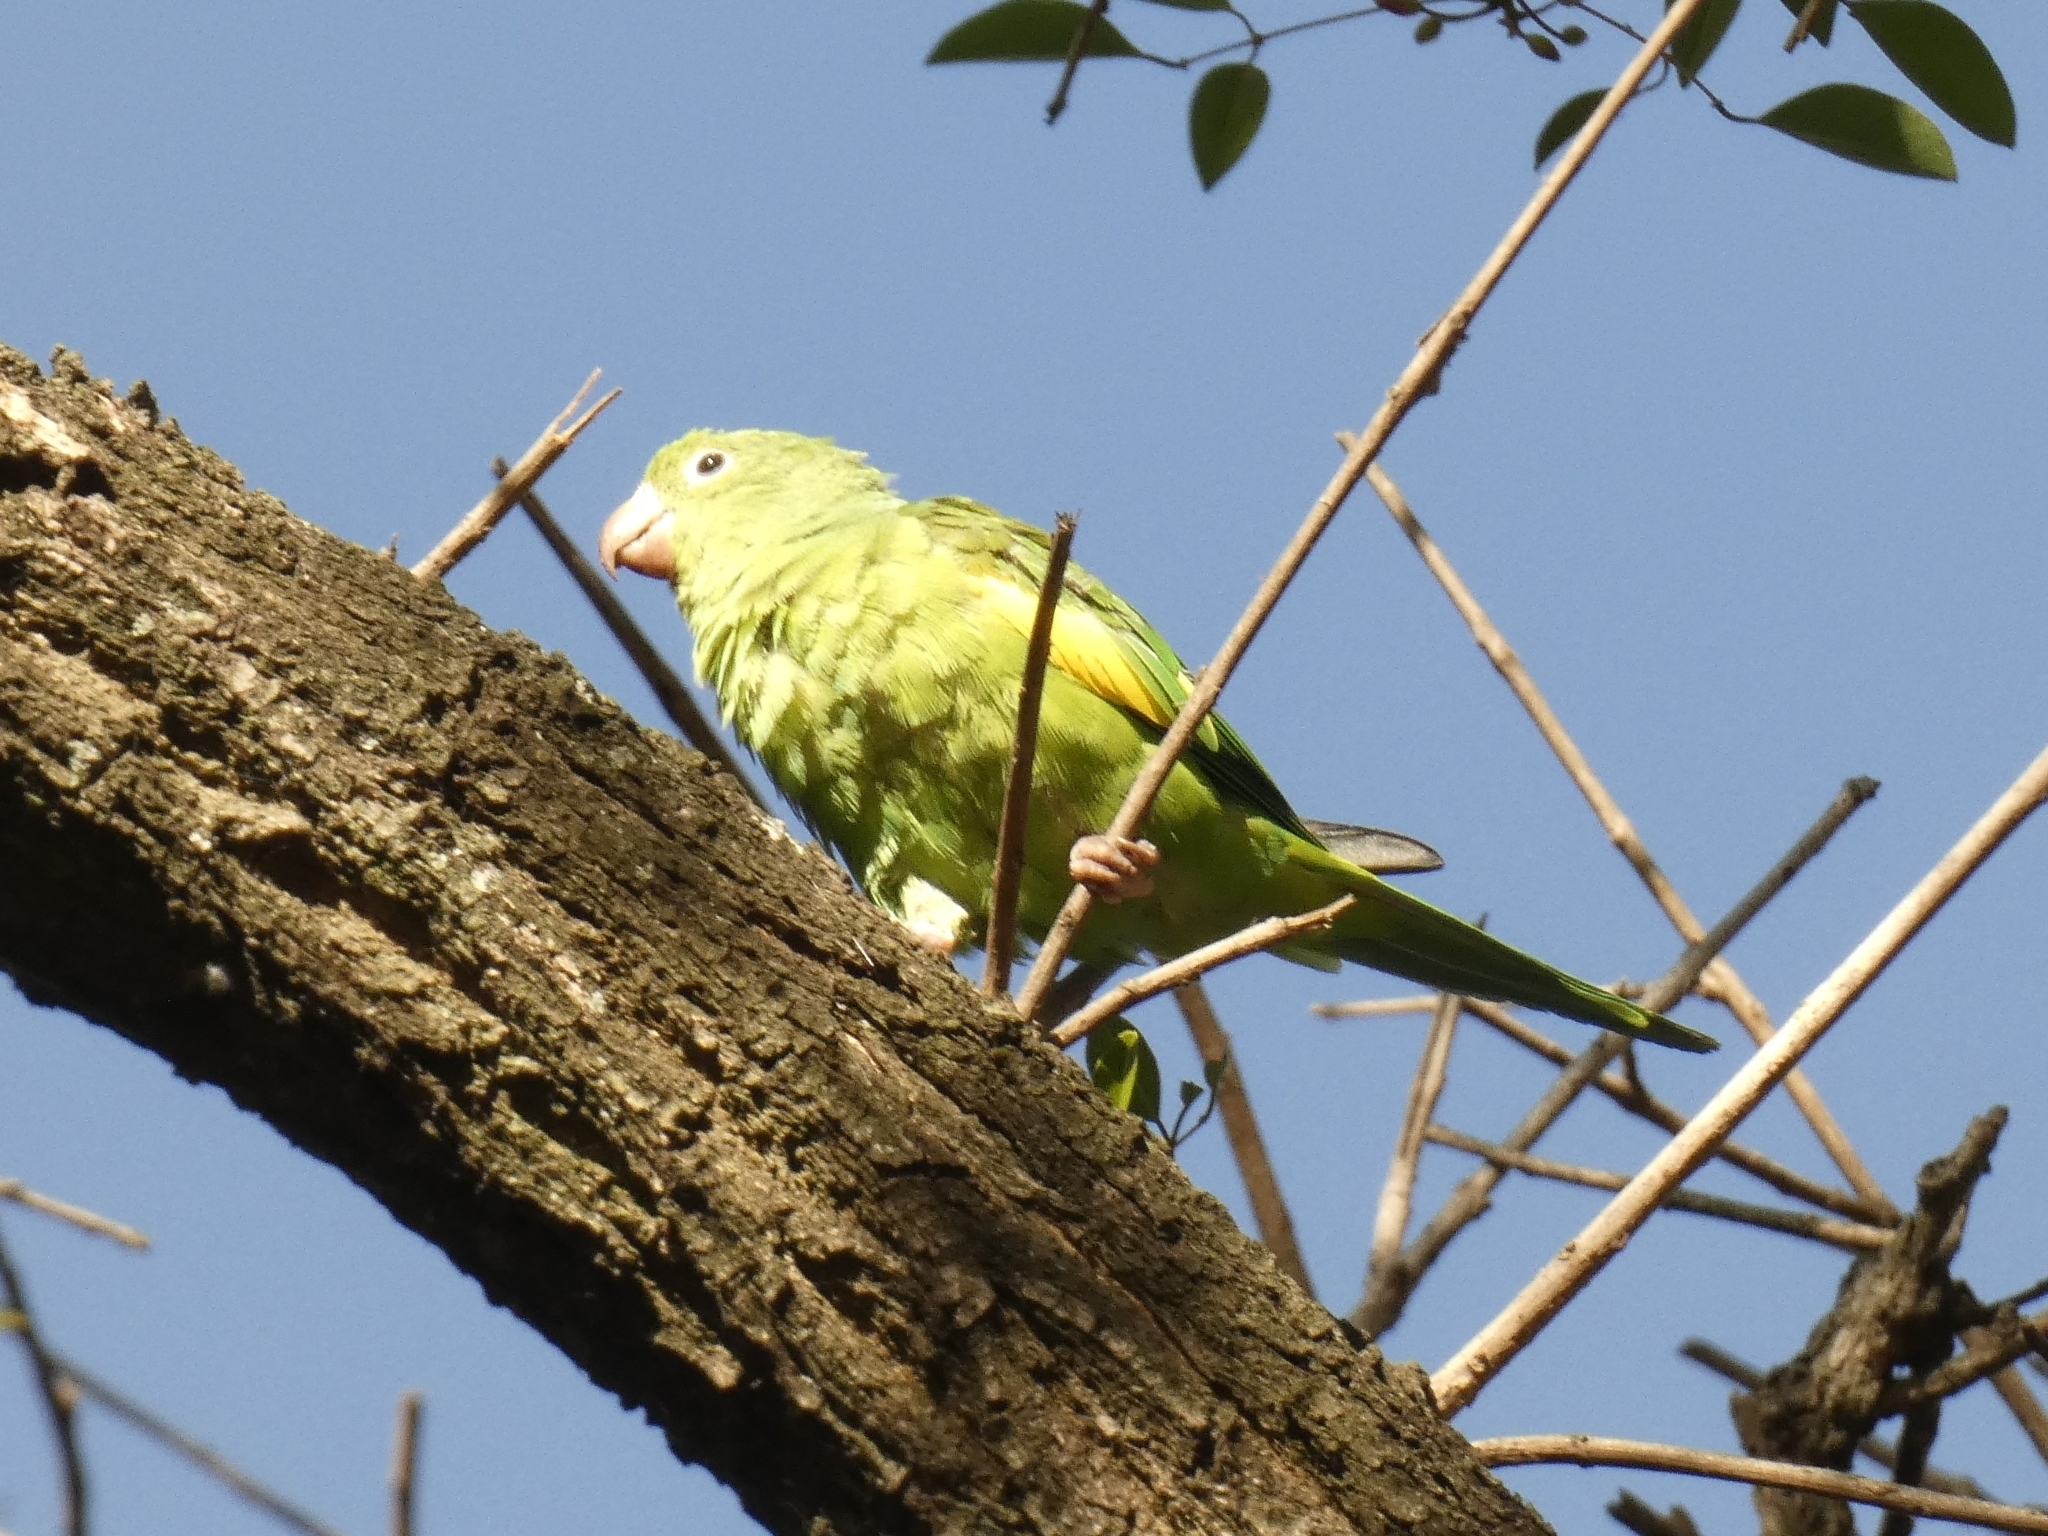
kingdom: Animalia
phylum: Chordata
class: Aves
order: Psittaciformes
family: Psittacidae
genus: Brotogeris
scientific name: Brotogeris chiriri
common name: Yellow-chevroned parakeet
